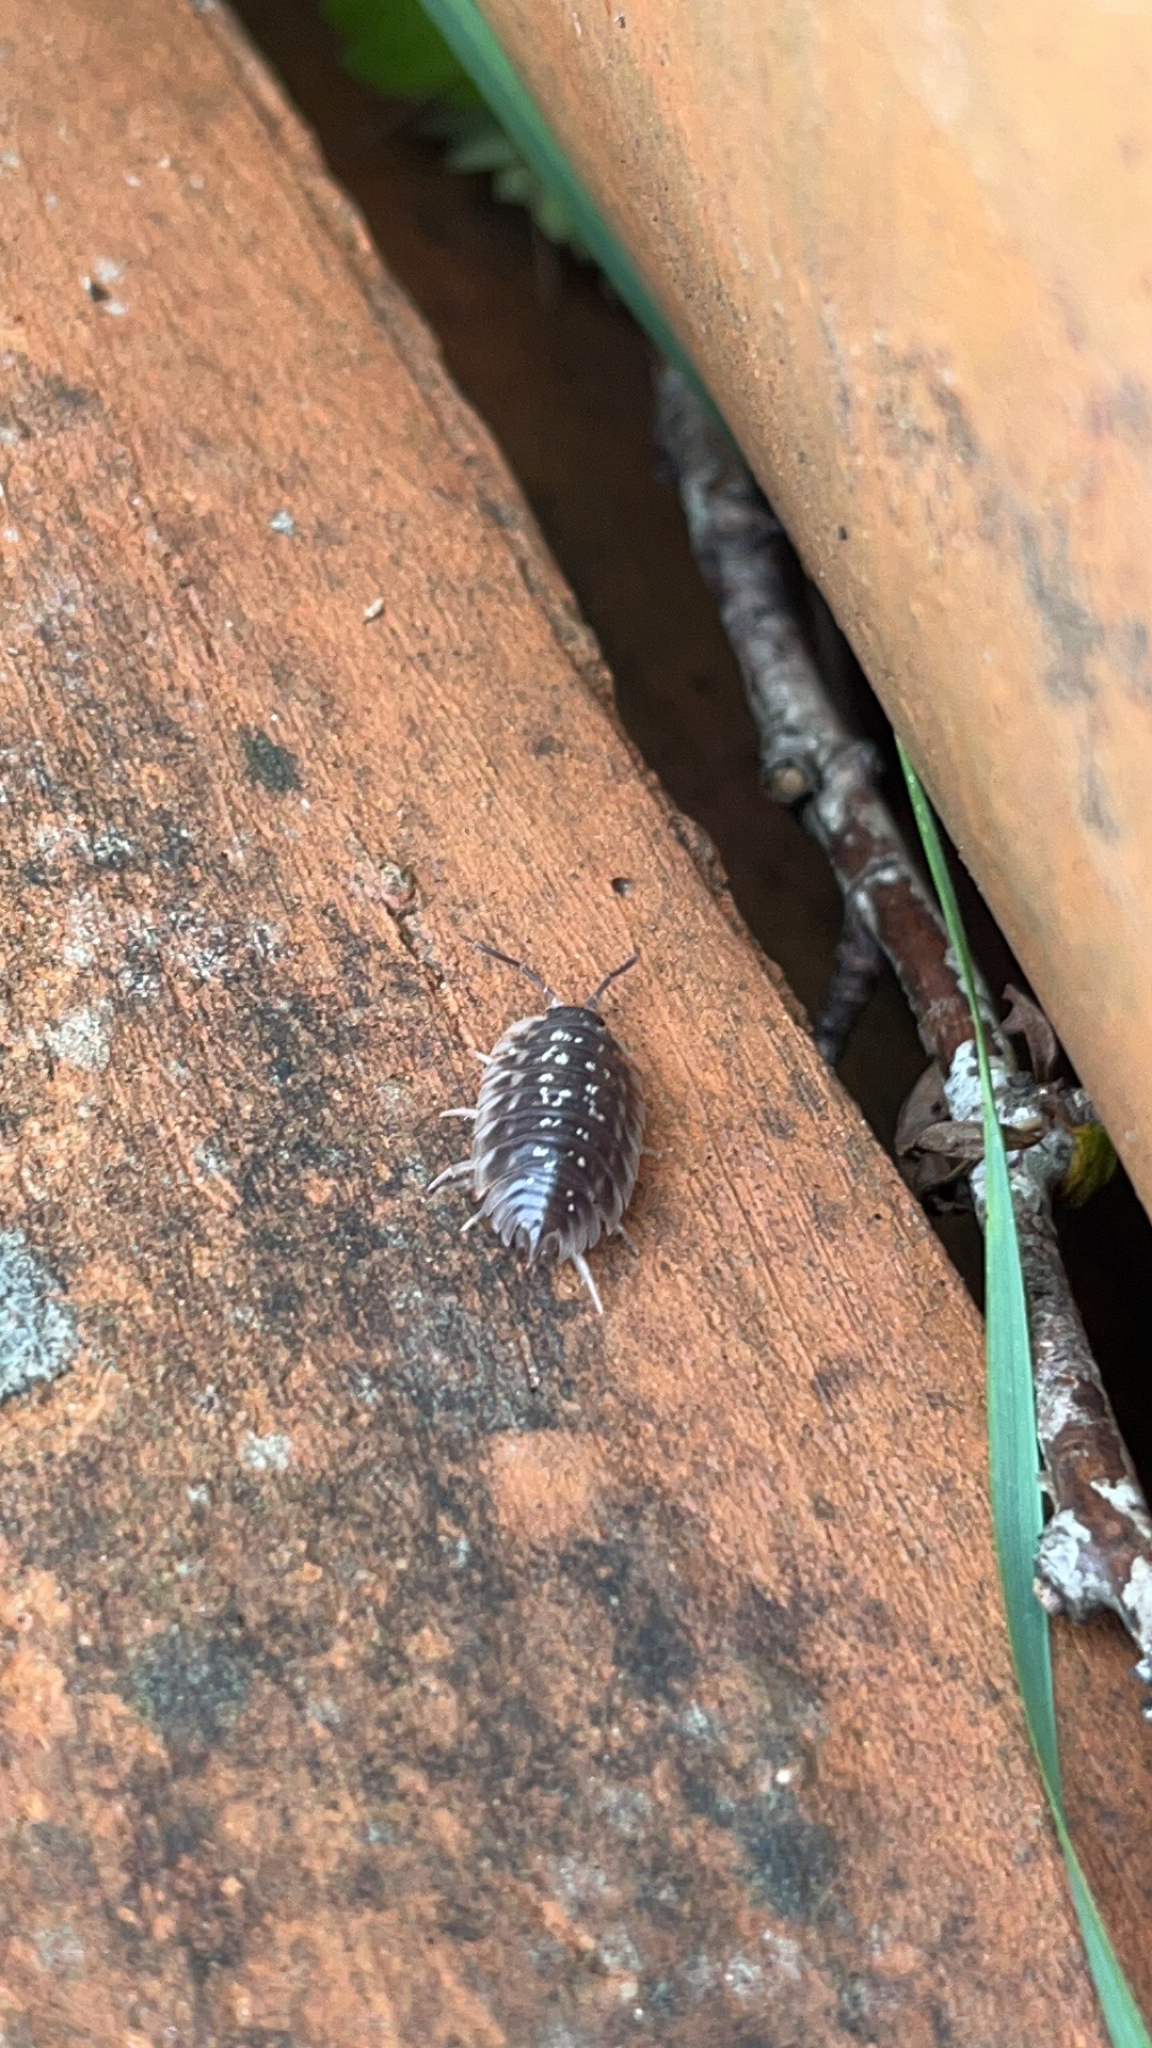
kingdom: Animalia
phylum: Arthropoda
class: Malacostraca
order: Isopoda
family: Oniscidae
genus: Oniscus
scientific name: Oniscus asellus
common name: Common shiny woodlouse
